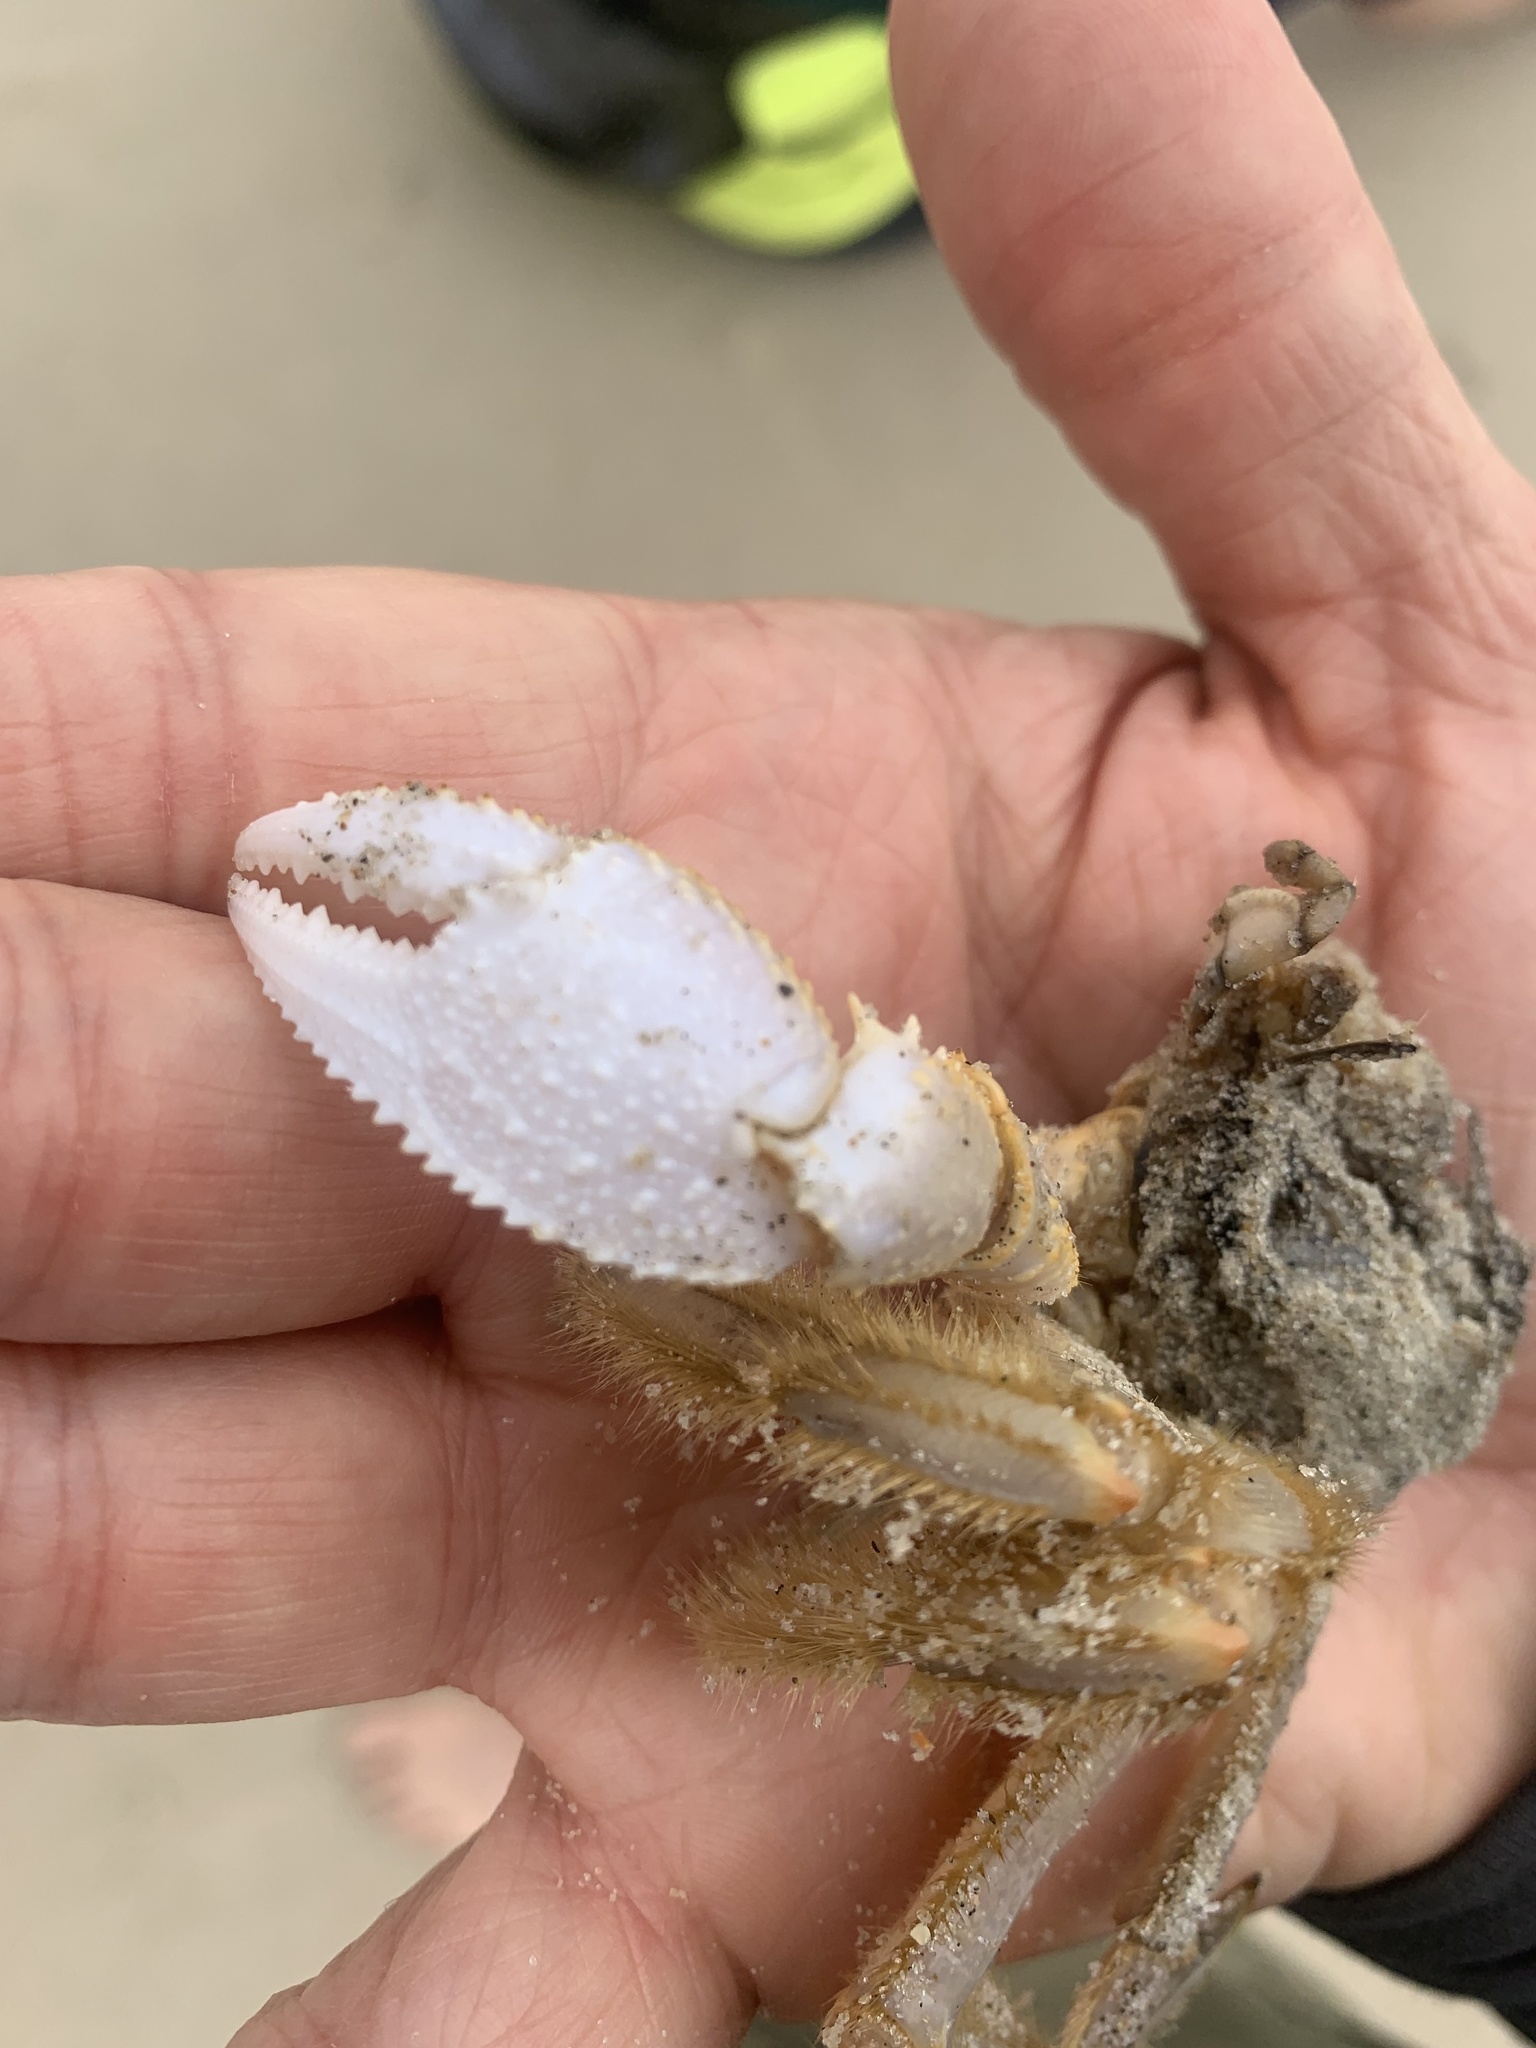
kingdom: Animalia
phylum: Arthropoda
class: Malacostraca
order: Decapoda
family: Ocypodidae
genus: Ocypode
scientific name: Ocypode quadrata
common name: Ghost crab
